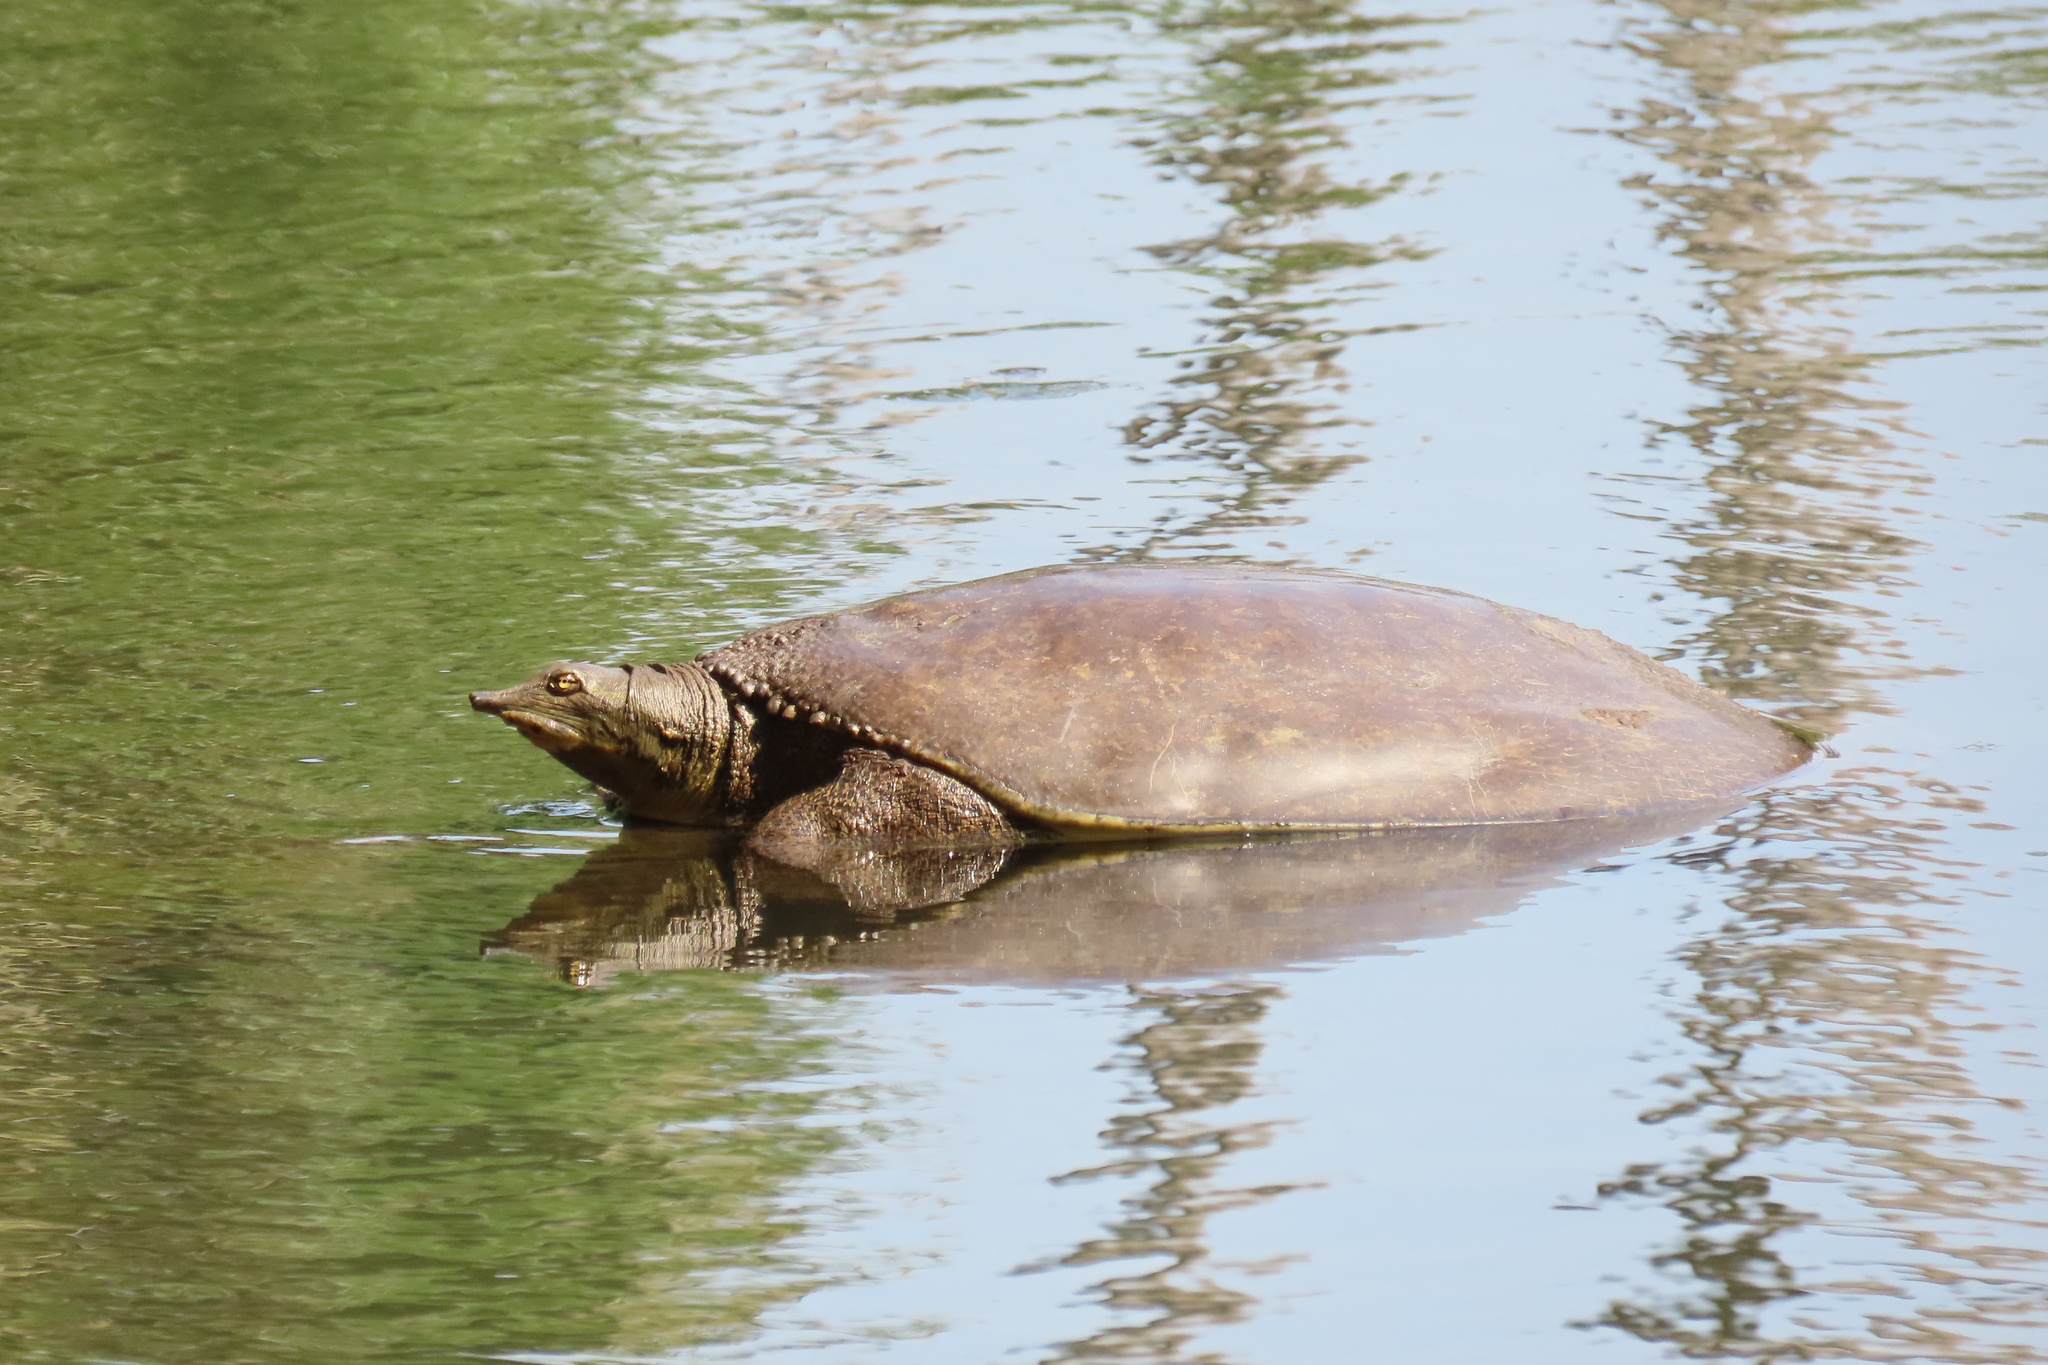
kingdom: Animalia
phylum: Chordata
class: Testudines
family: Trionychidae
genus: Apalone
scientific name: Apalone spinifera
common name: Spiny softshell turtle
